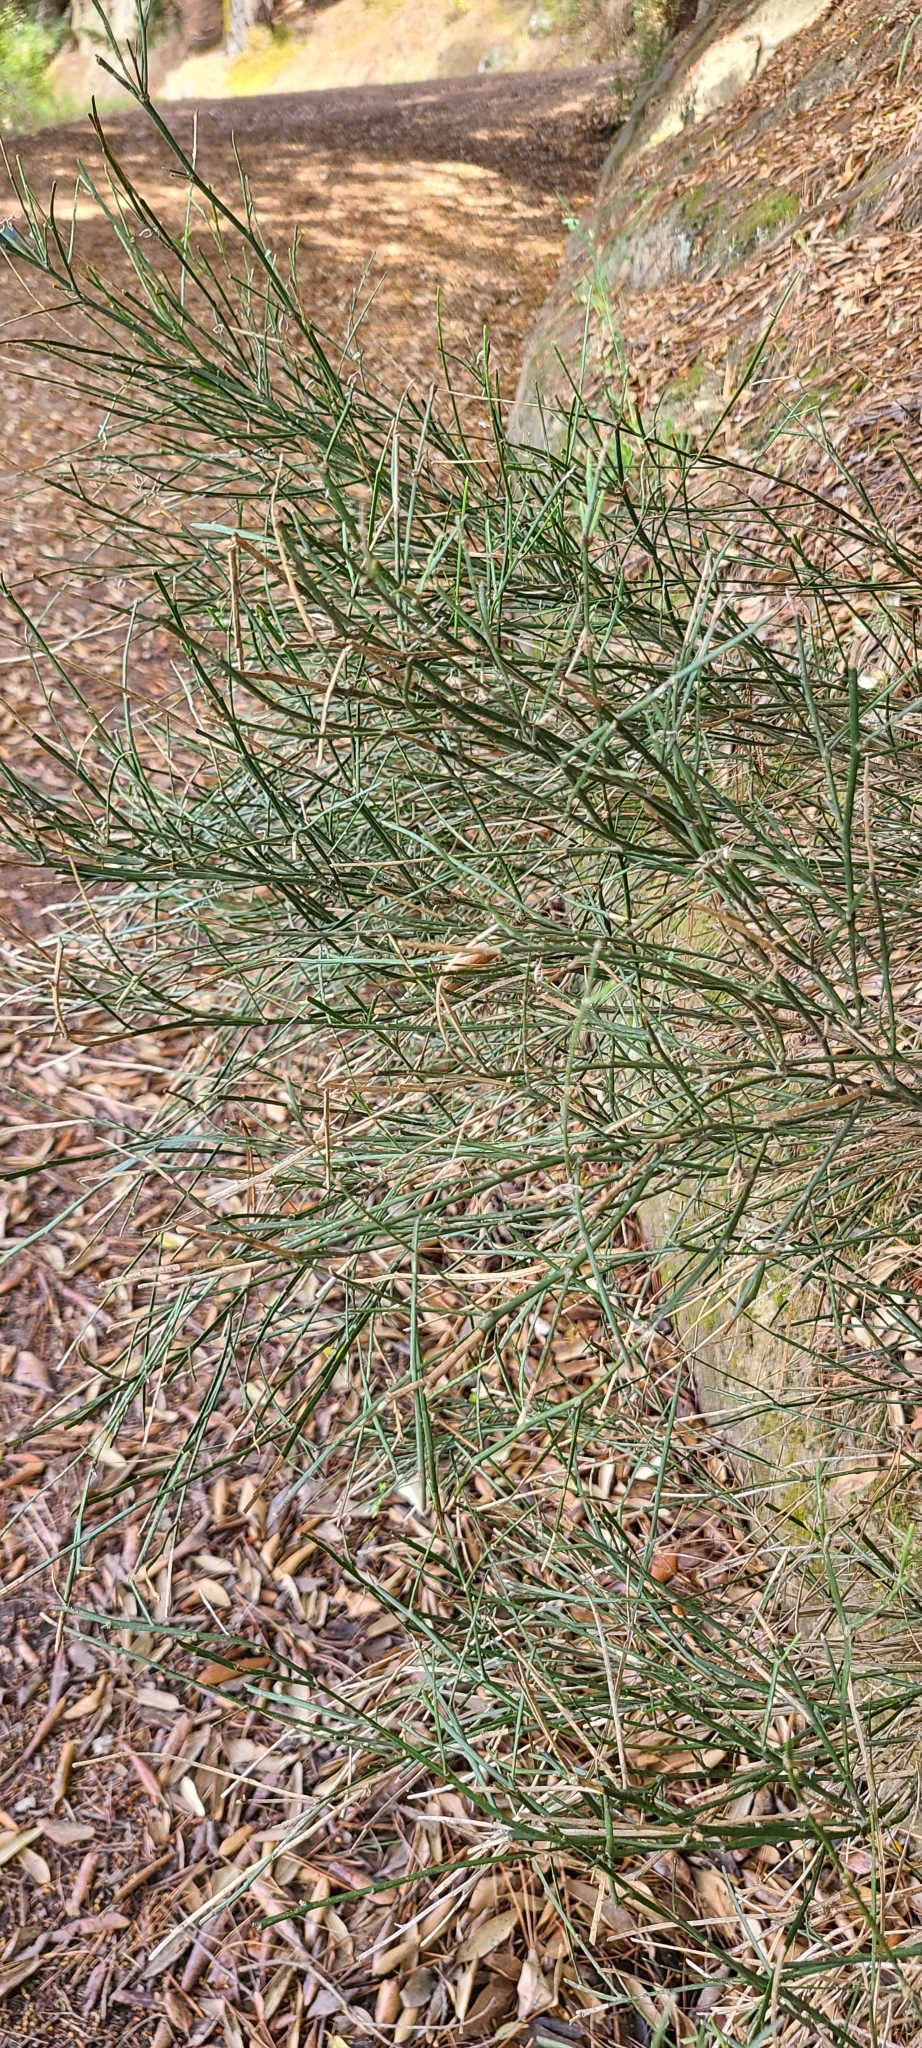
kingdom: Plantae
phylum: Tracheophyta
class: Magnoliopsida
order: Fabales
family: Fabaceae
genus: Carmichaelia
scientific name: Carmichaelia australis
